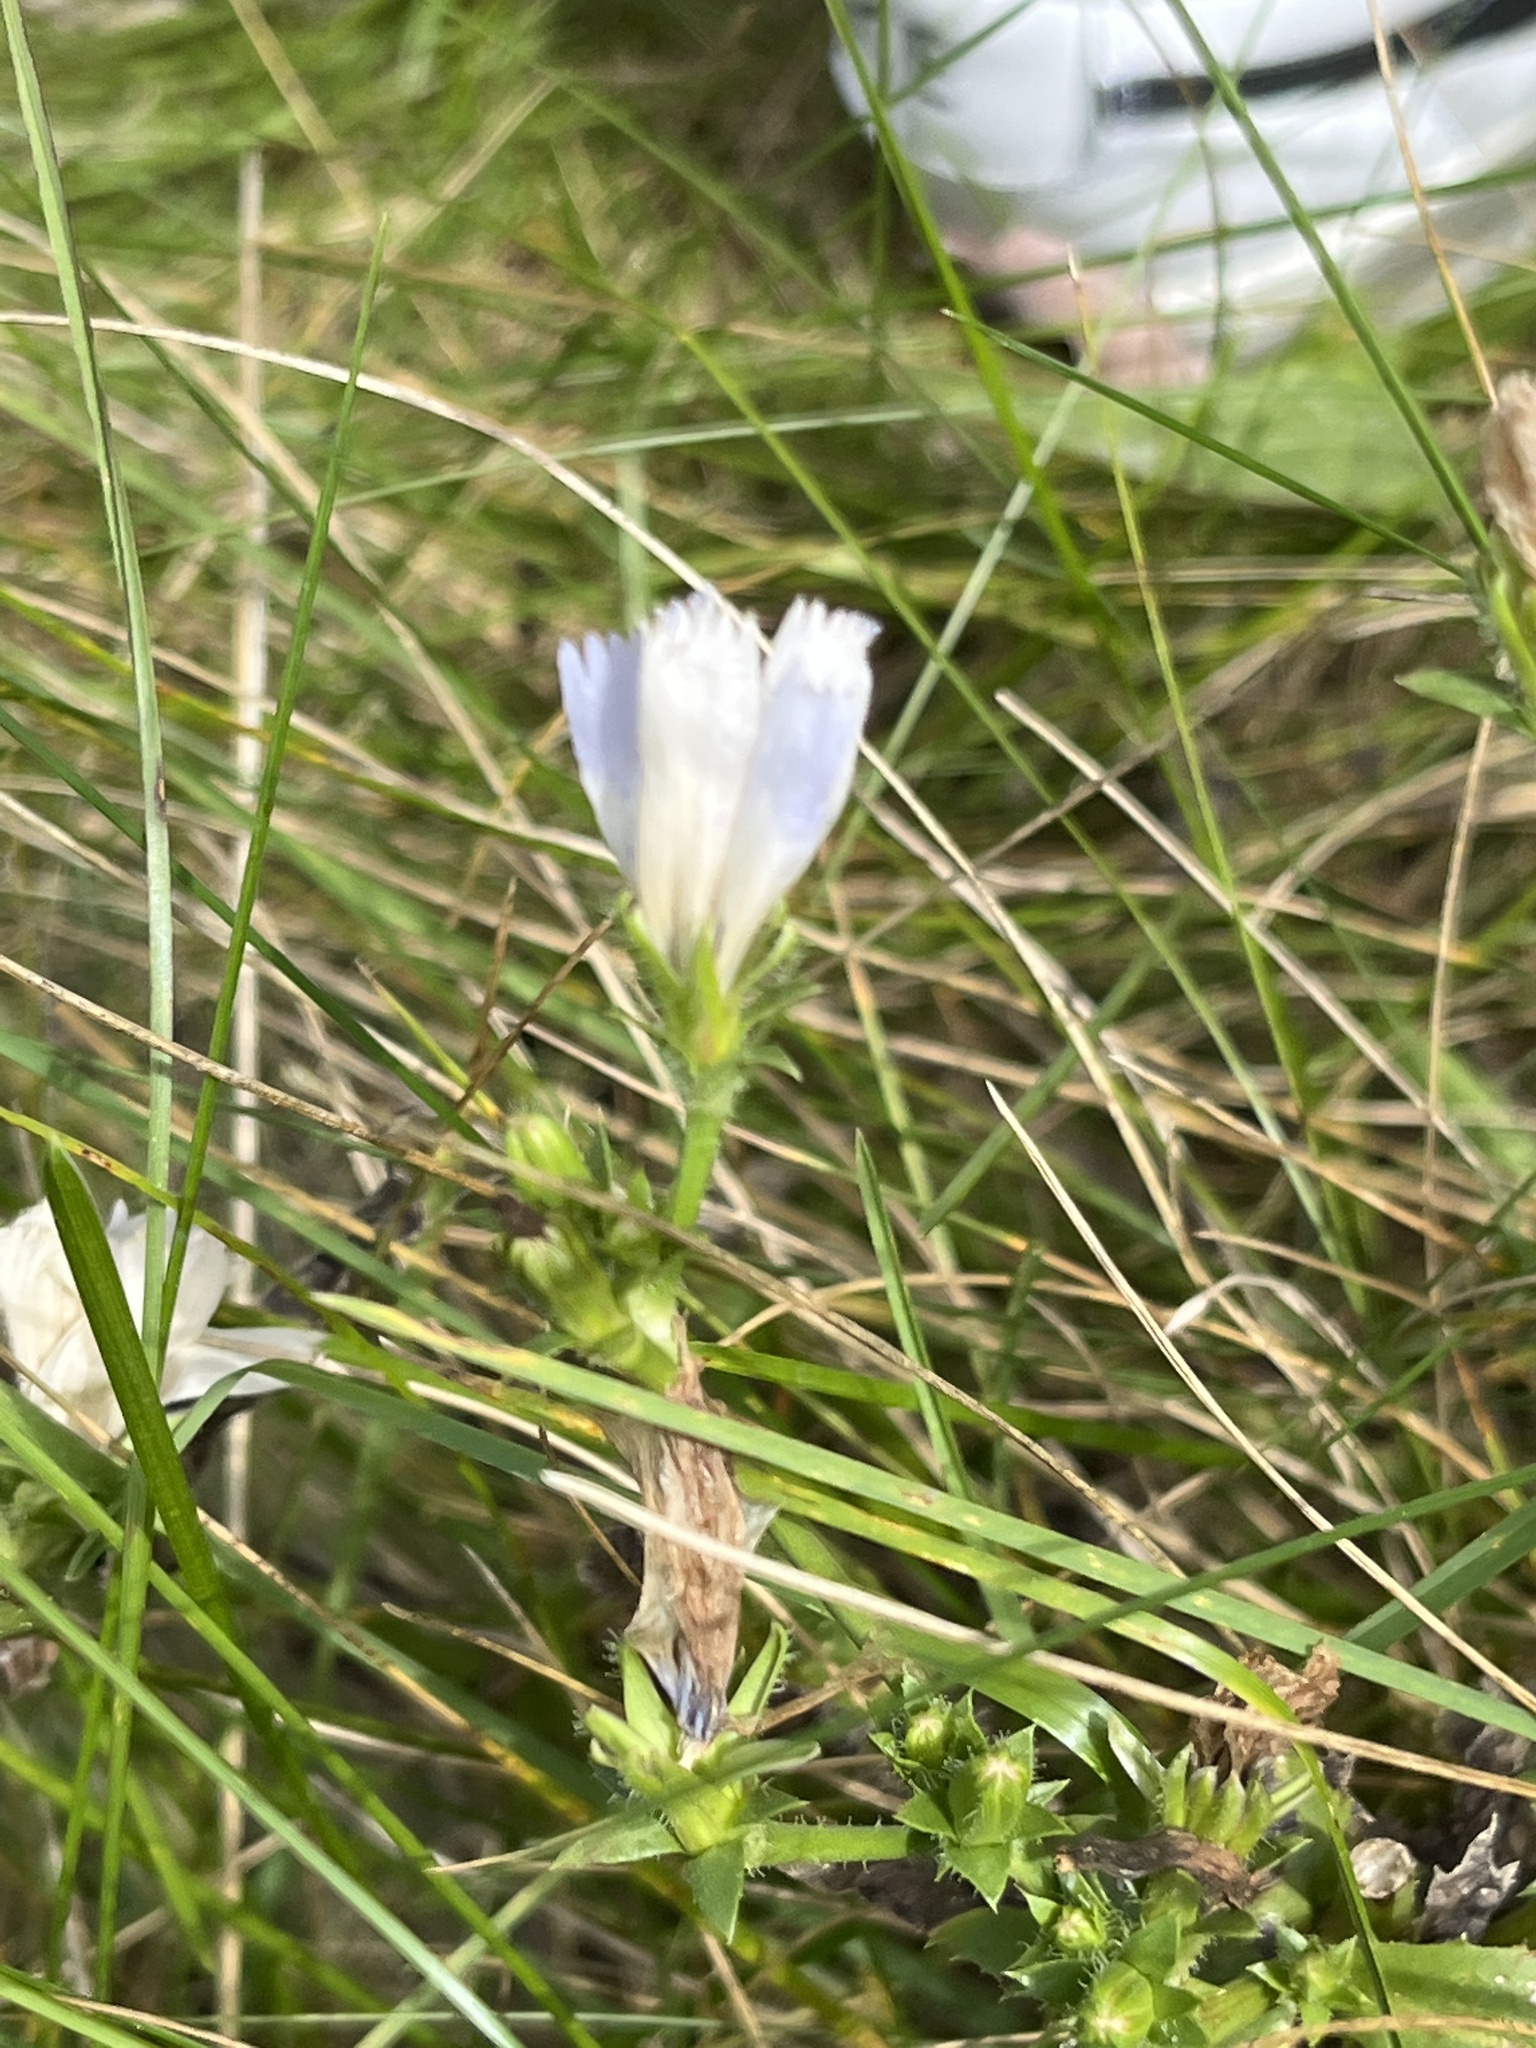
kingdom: Plantae
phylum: Tracheophyta
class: Magnoliopsida
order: Asterales
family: Asteraceae
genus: Cichorium
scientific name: Cichorium intybus
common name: Chicory
